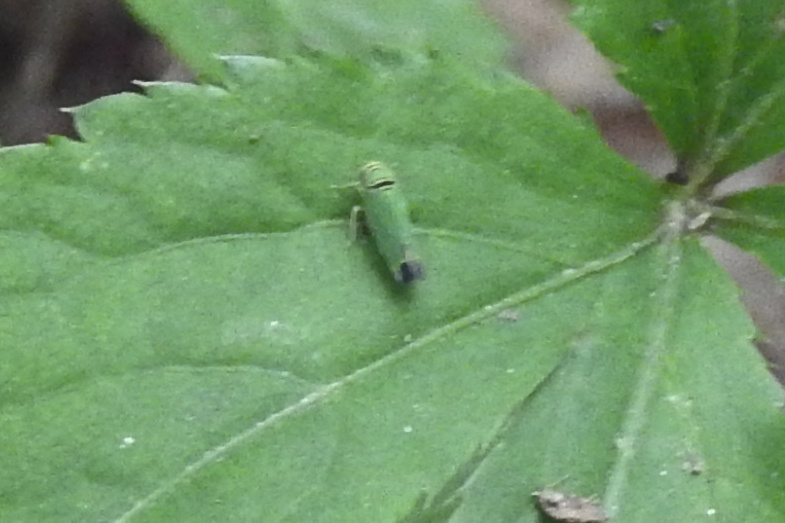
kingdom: Animalia
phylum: Arthropoda
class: Insecta
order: Hemiptera
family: Cicadellidae
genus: Tylozygus
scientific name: Tylozygus geometricus
